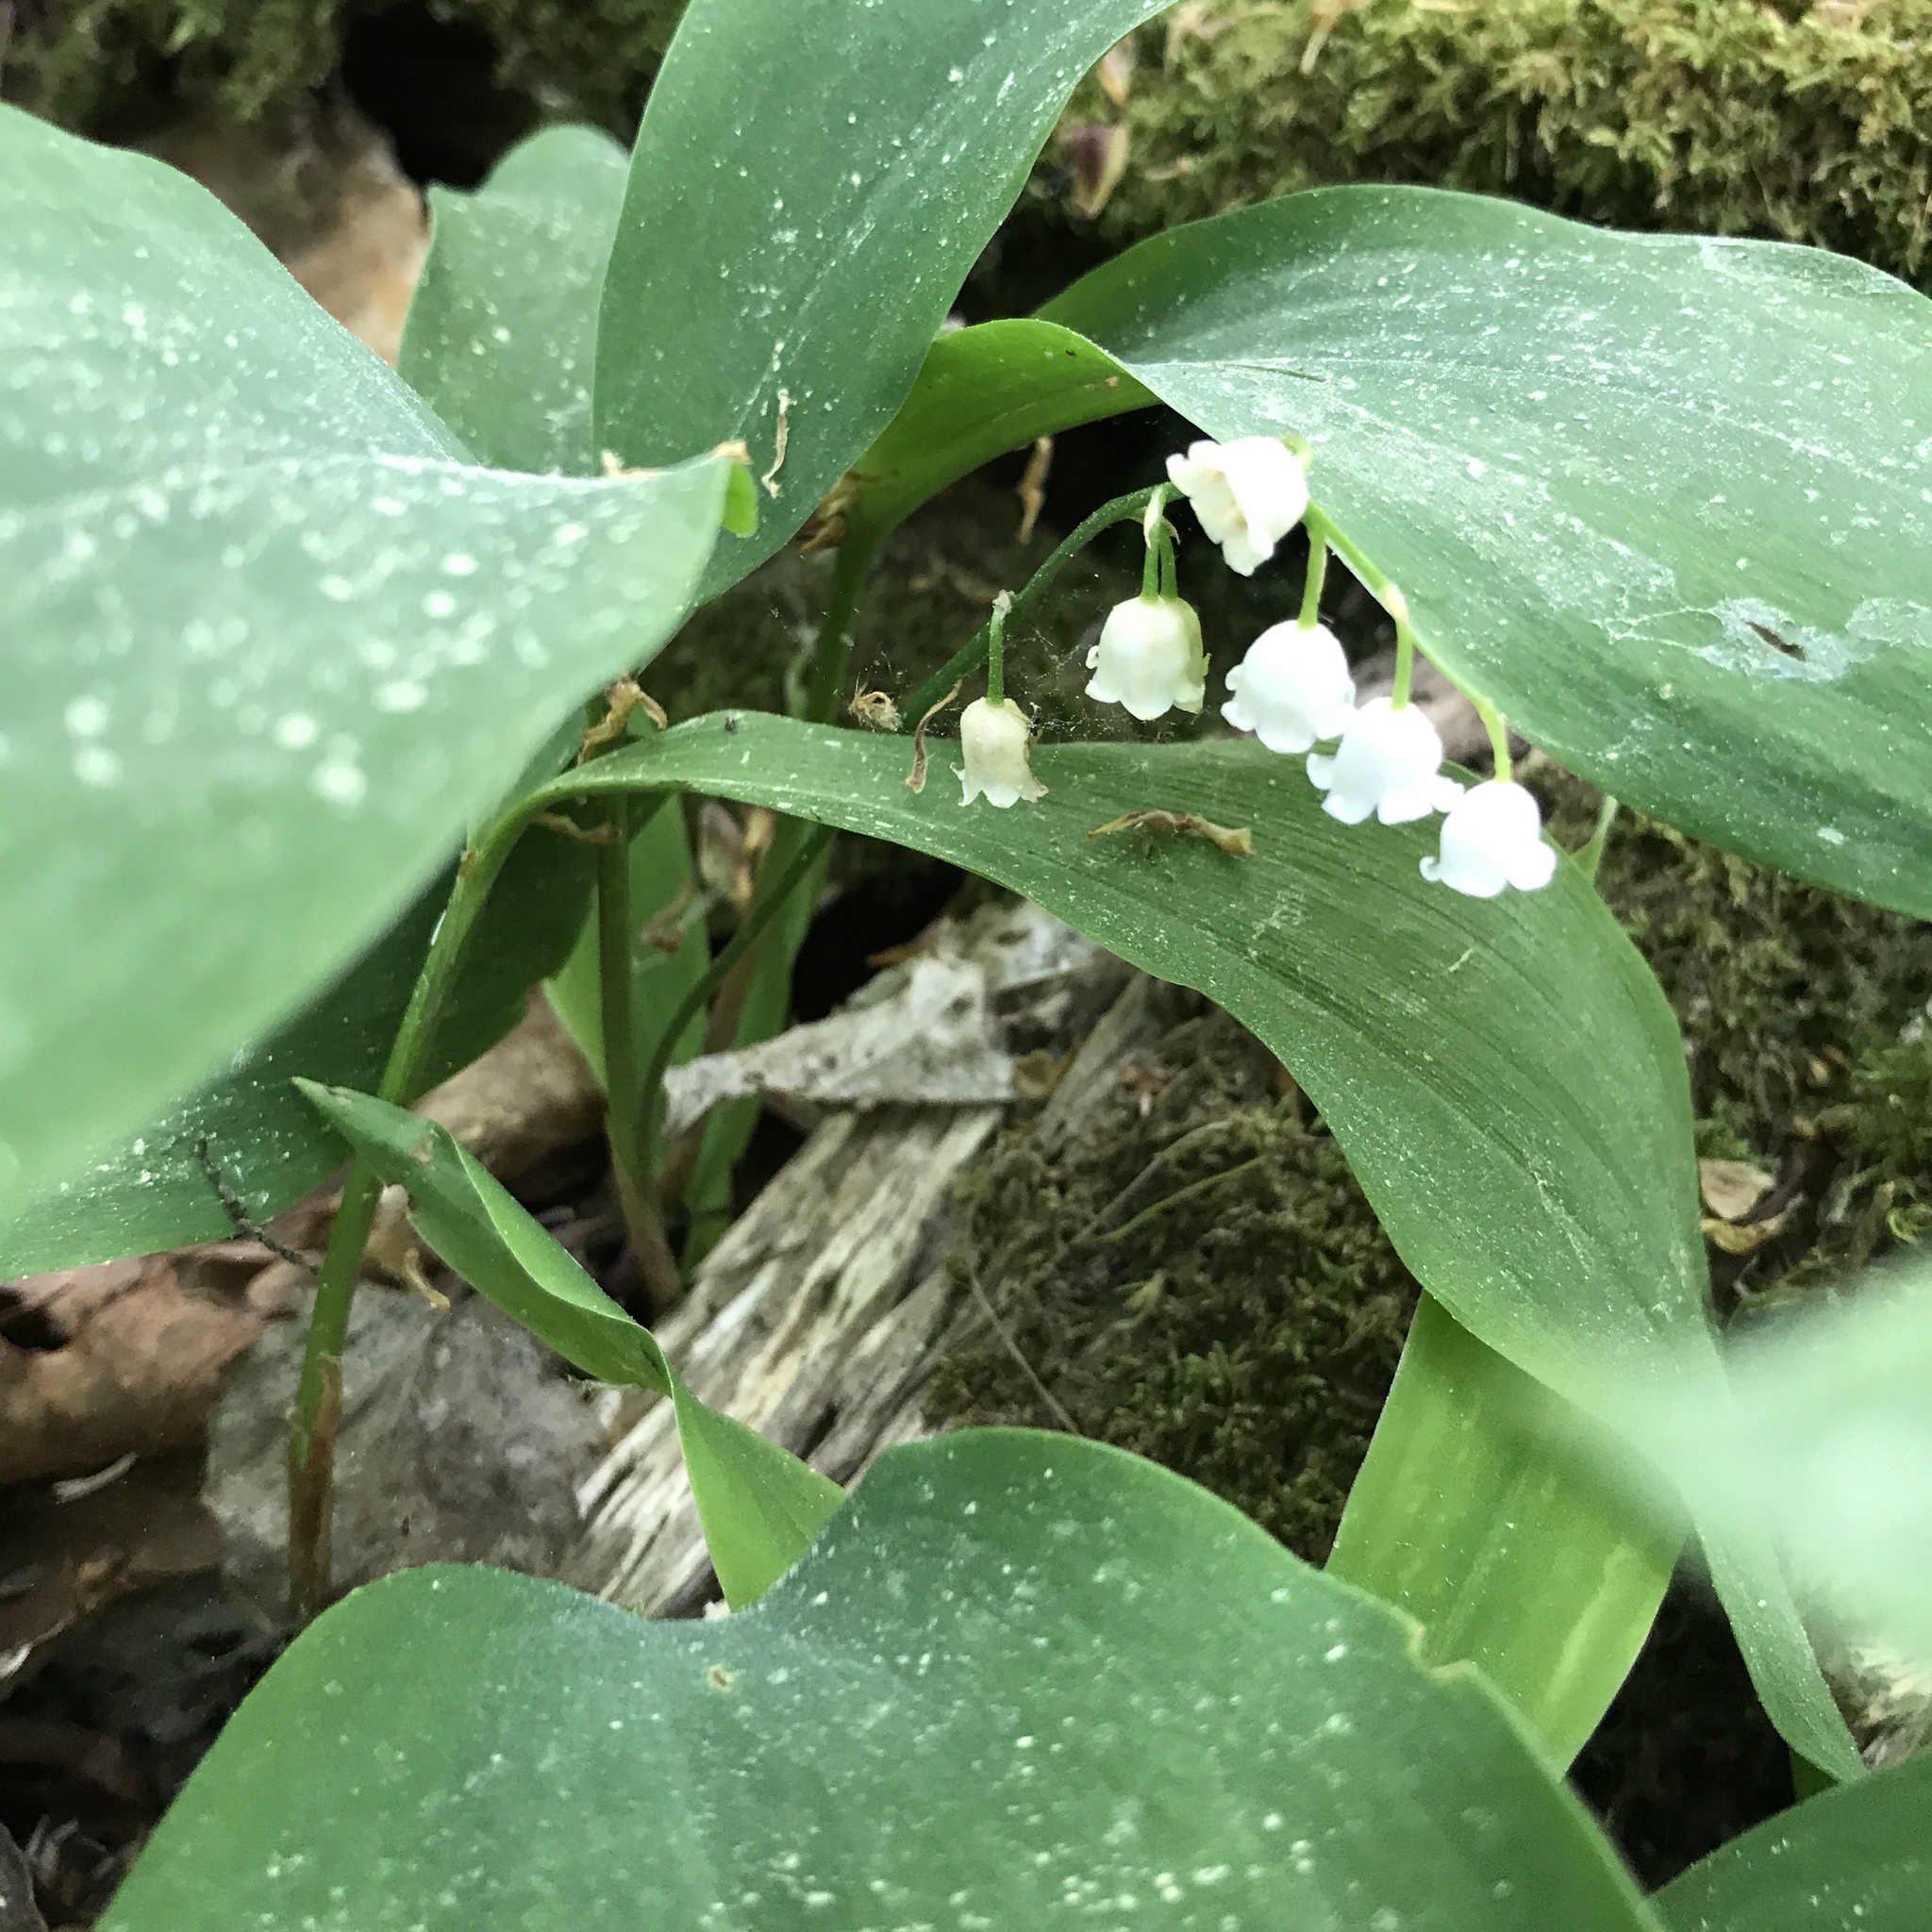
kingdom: Plantae
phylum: Tracheophyta
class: Liliopsida
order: Asparagales
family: Asparagaceae
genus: Convallaria
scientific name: Convallaria majalis
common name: Lily-of-the-valley
